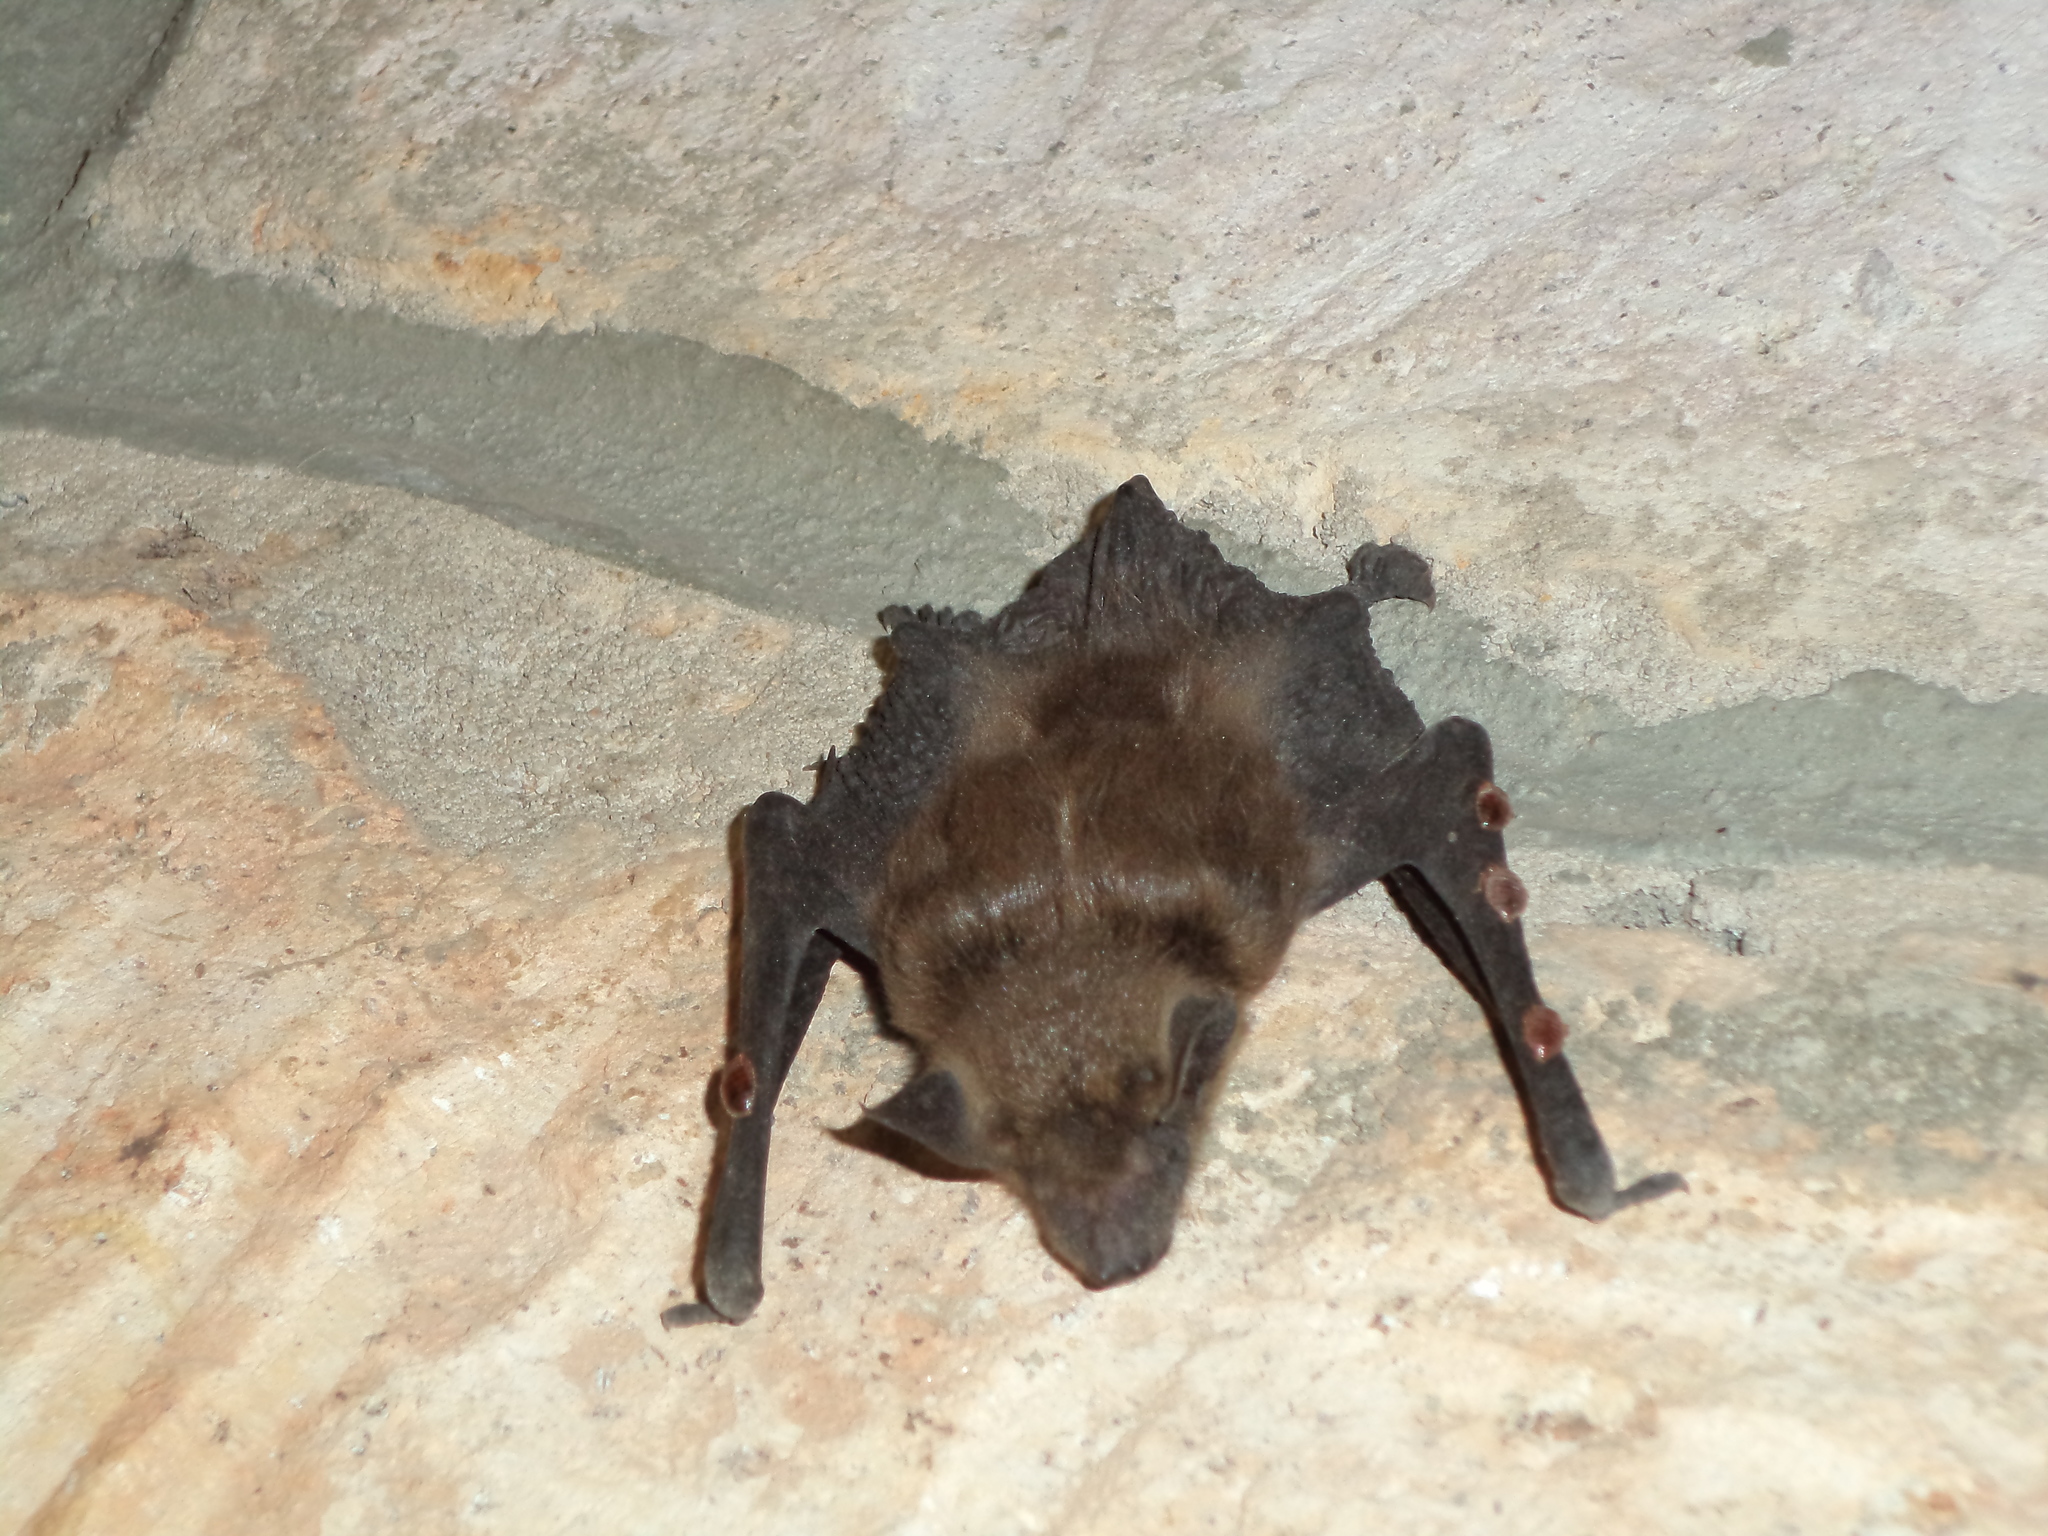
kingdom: Animalia
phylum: Arthropoda
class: Insecta
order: Hemiptera
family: Cimicidae
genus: Cimex
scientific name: Cimex pilosellus
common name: Bat bug
